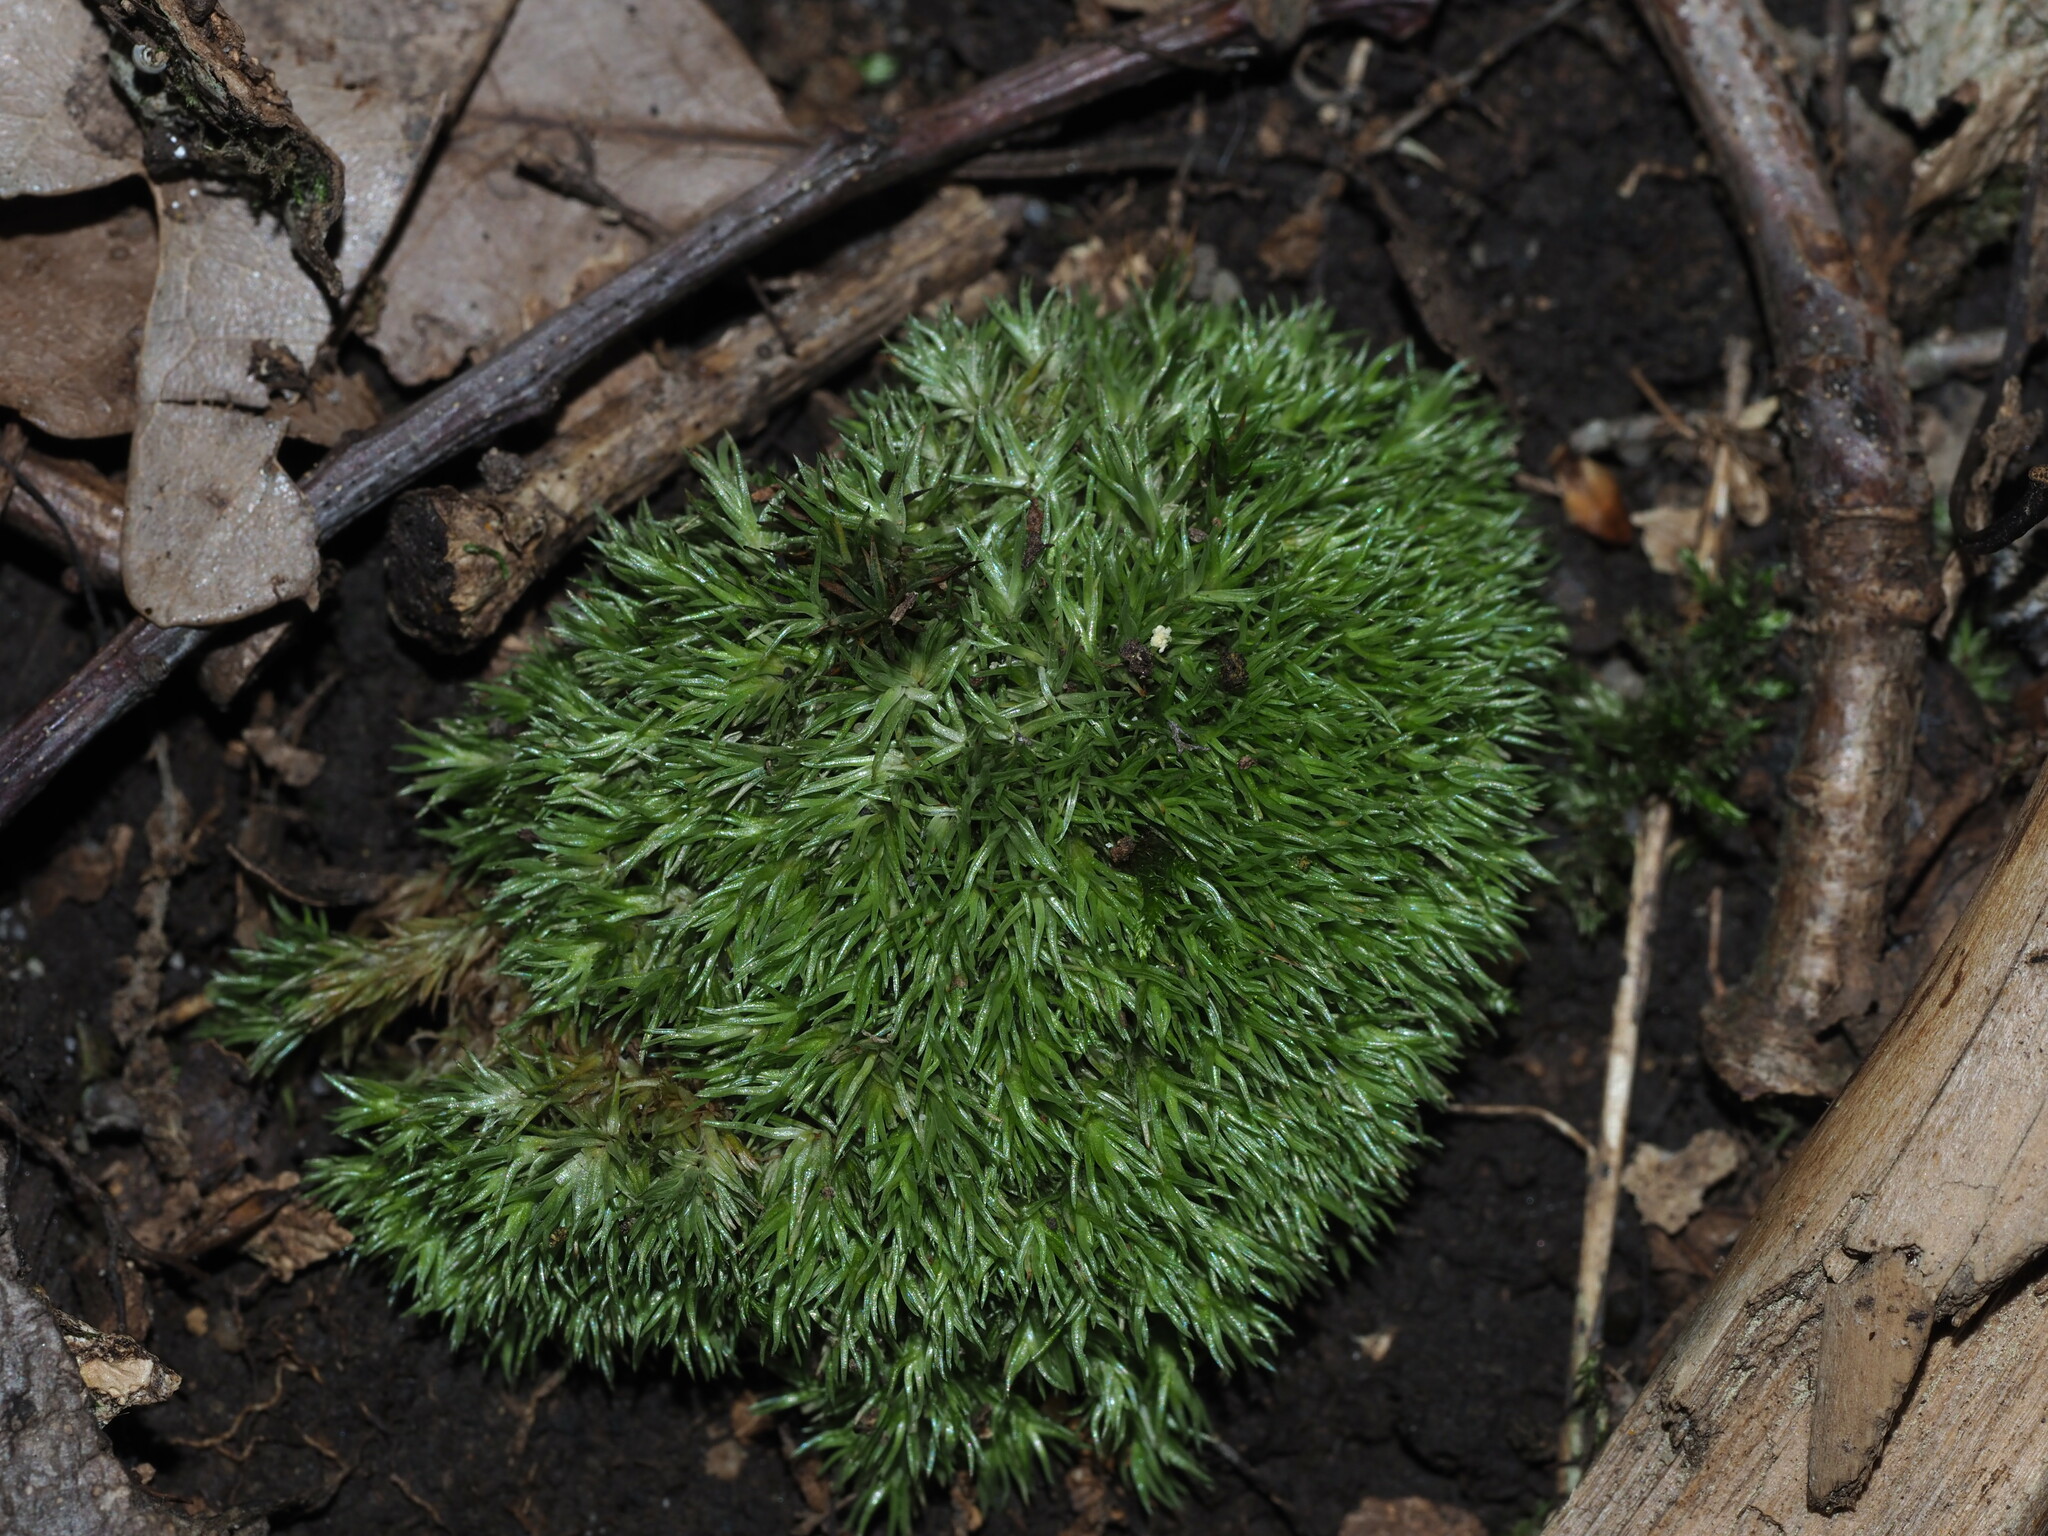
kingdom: Plantae
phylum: Bryophyta
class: Bryopsida
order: Dicranales
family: Leucobryaceae
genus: Leucobryum
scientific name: Leucobryum glaucum
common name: Large white-moss
